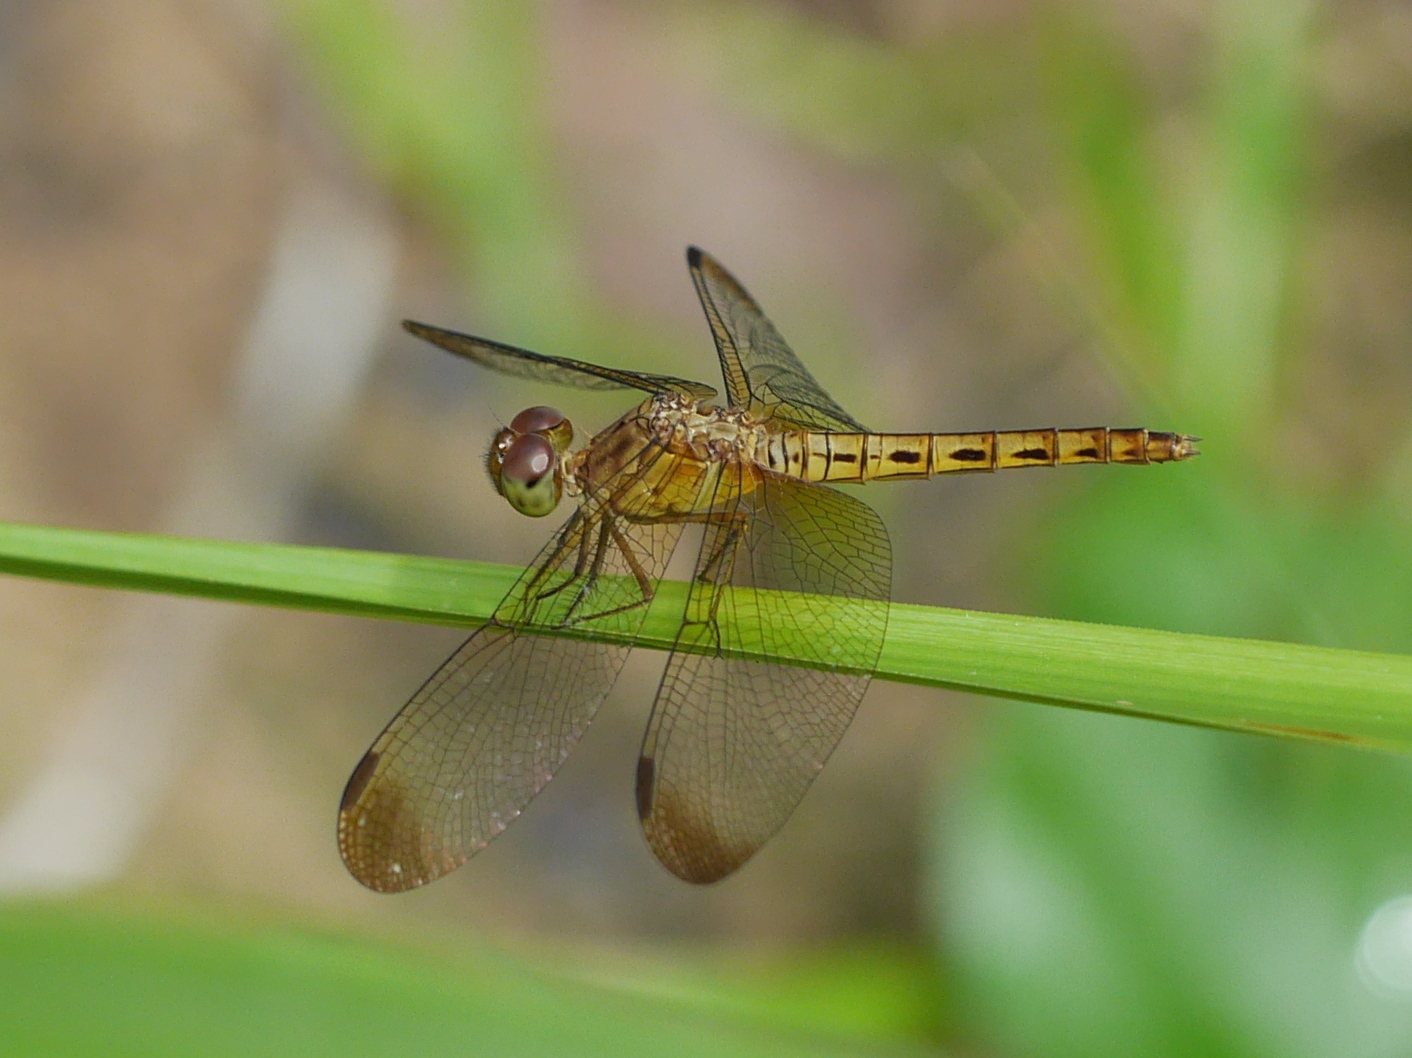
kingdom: Animalia
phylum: Arthropoda
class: Insecta
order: Odonata
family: Libellulidae
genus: Neurothemis
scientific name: Neurothemis fluctuans
